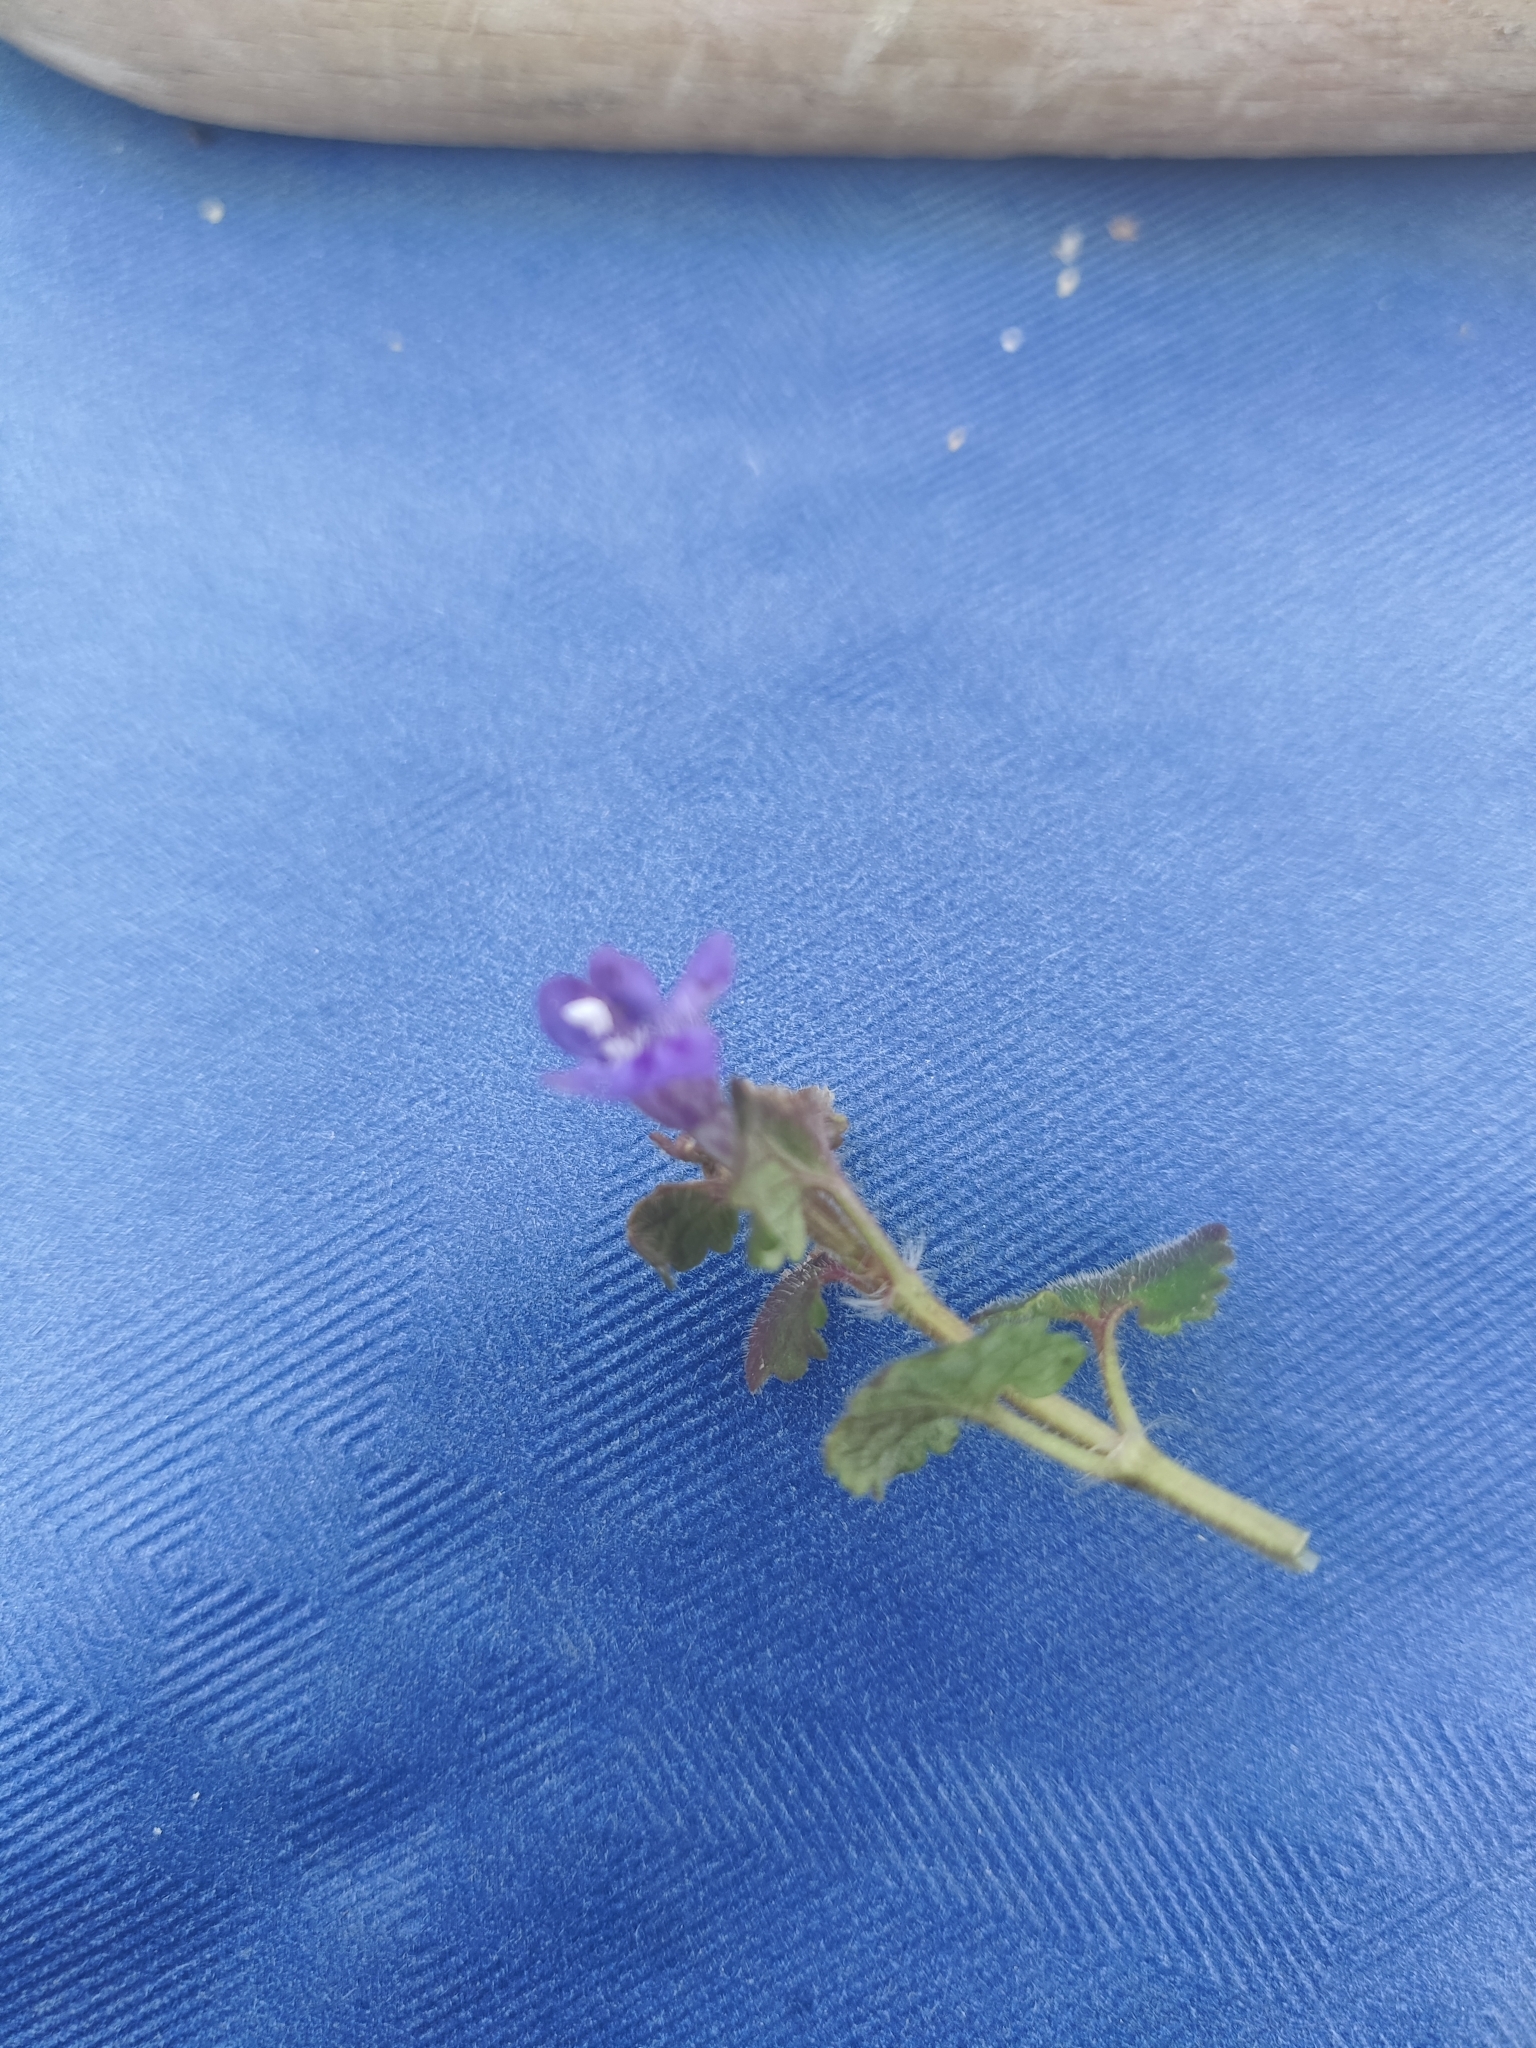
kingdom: Plantae
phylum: Tracheophyta
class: Magnoliopsida
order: Lamiales
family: Lamiaceae
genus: Glechoma
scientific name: Glechoma hederacea
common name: Ground ivy
